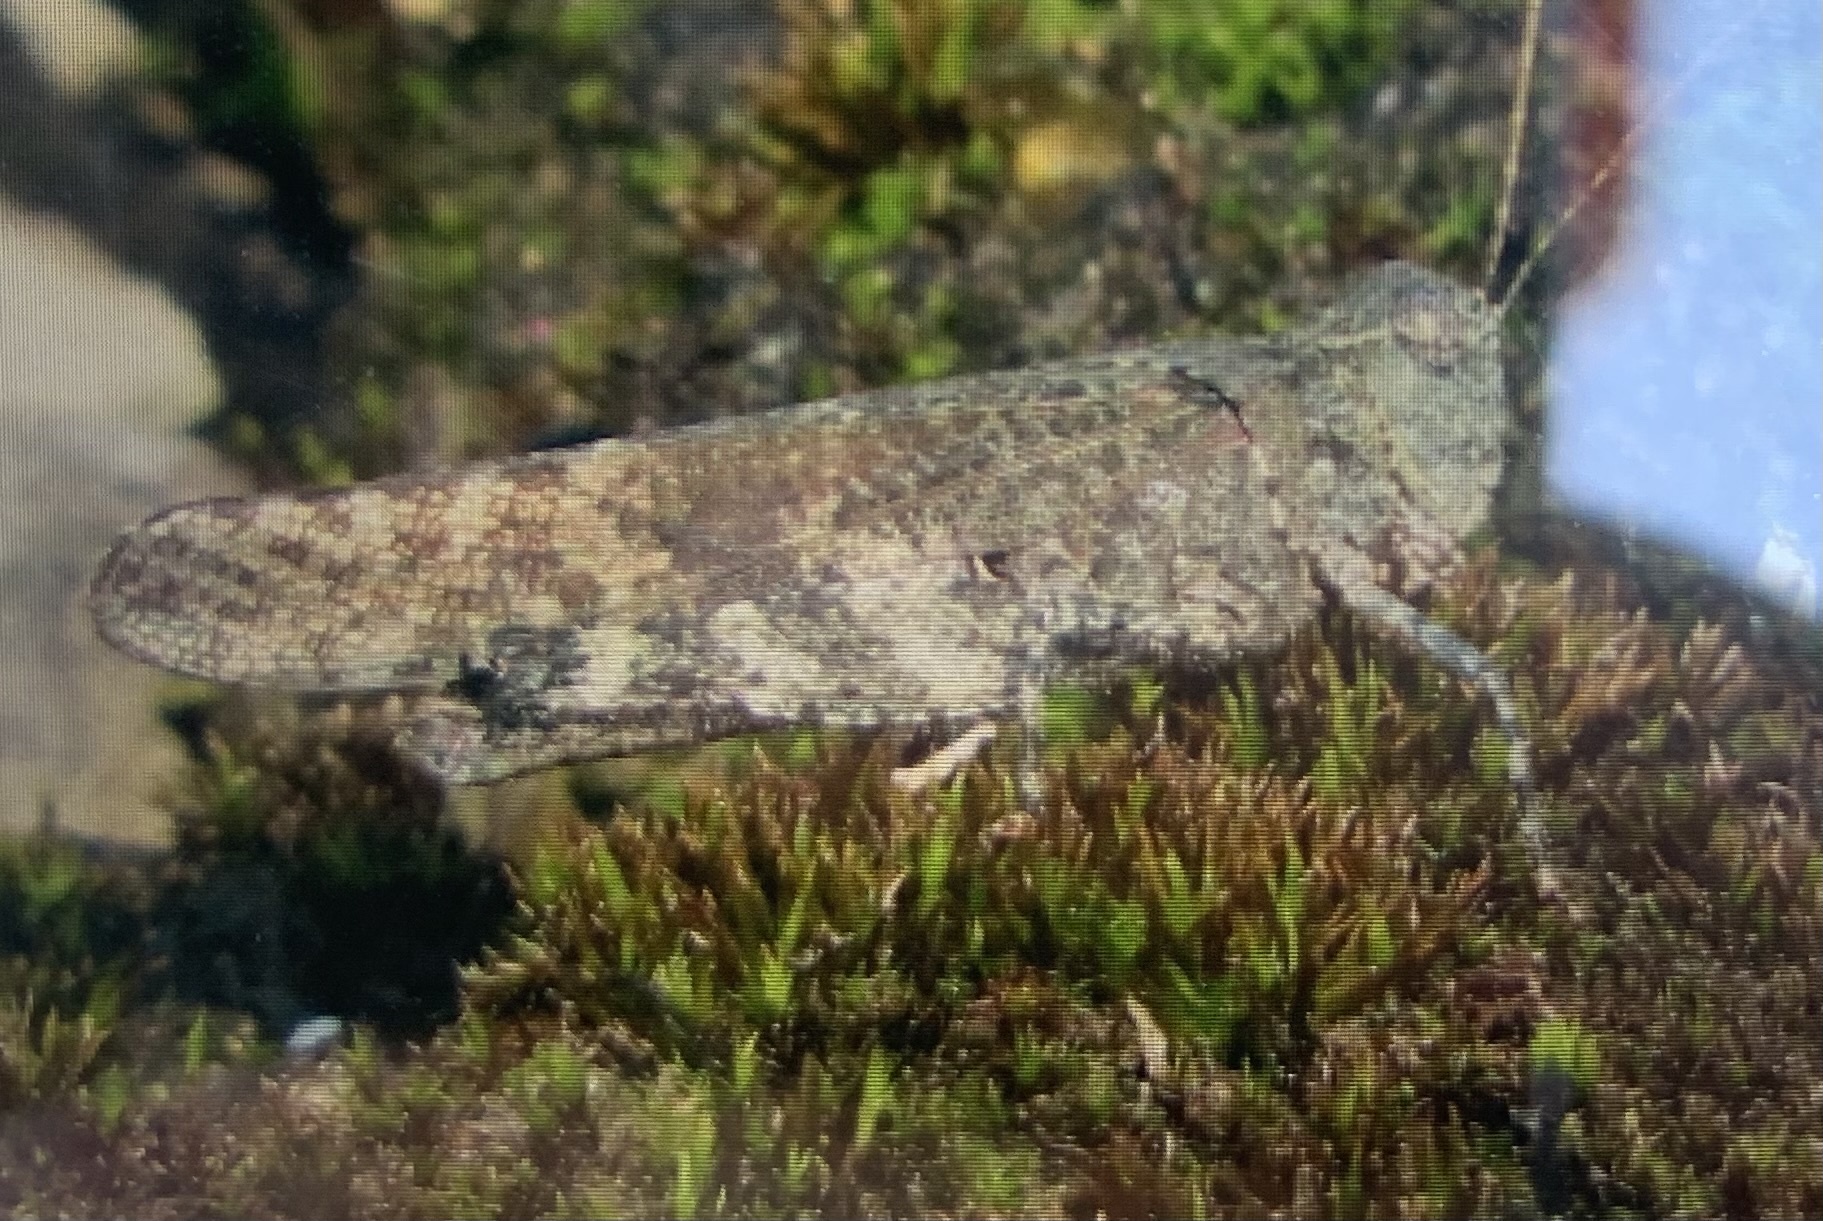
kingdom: Animalia
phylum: Arthropoda
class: Insecta
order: Orthoptera
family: Acrididae
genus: Trimerotropis
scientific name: Trimerotropis verruculata
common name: Crackling forest grasshopper
